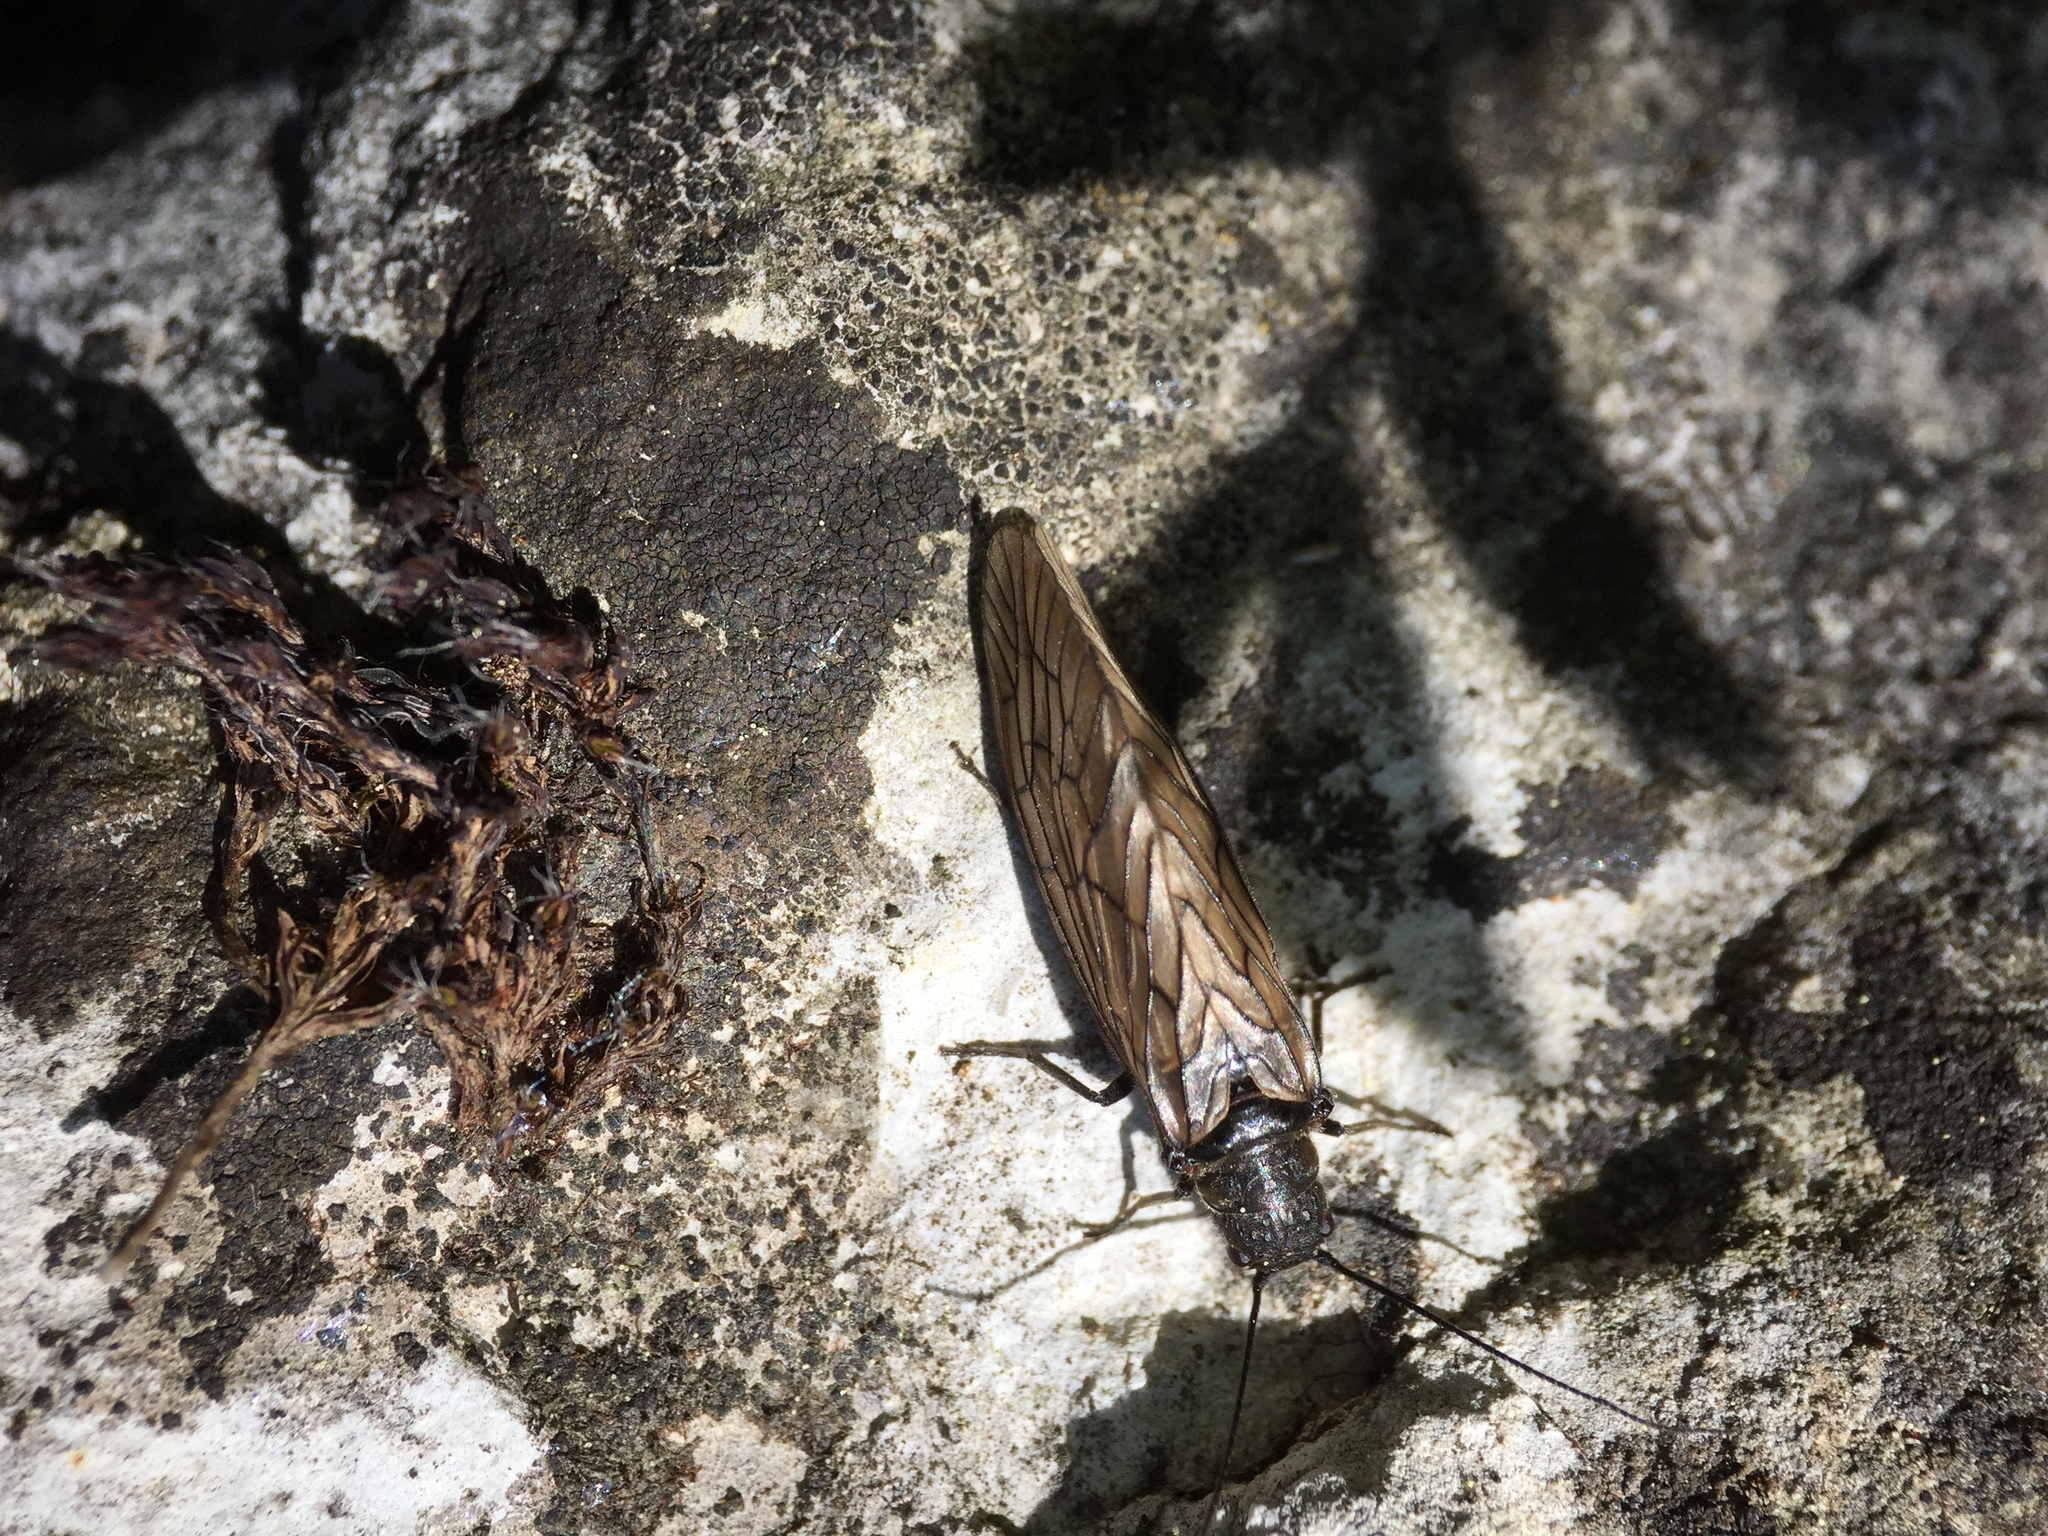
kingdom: Animalia
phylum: Arthropoda
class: Insecta
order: Megaloptera
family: Sialidae
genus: Sialis
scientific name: Sialis
